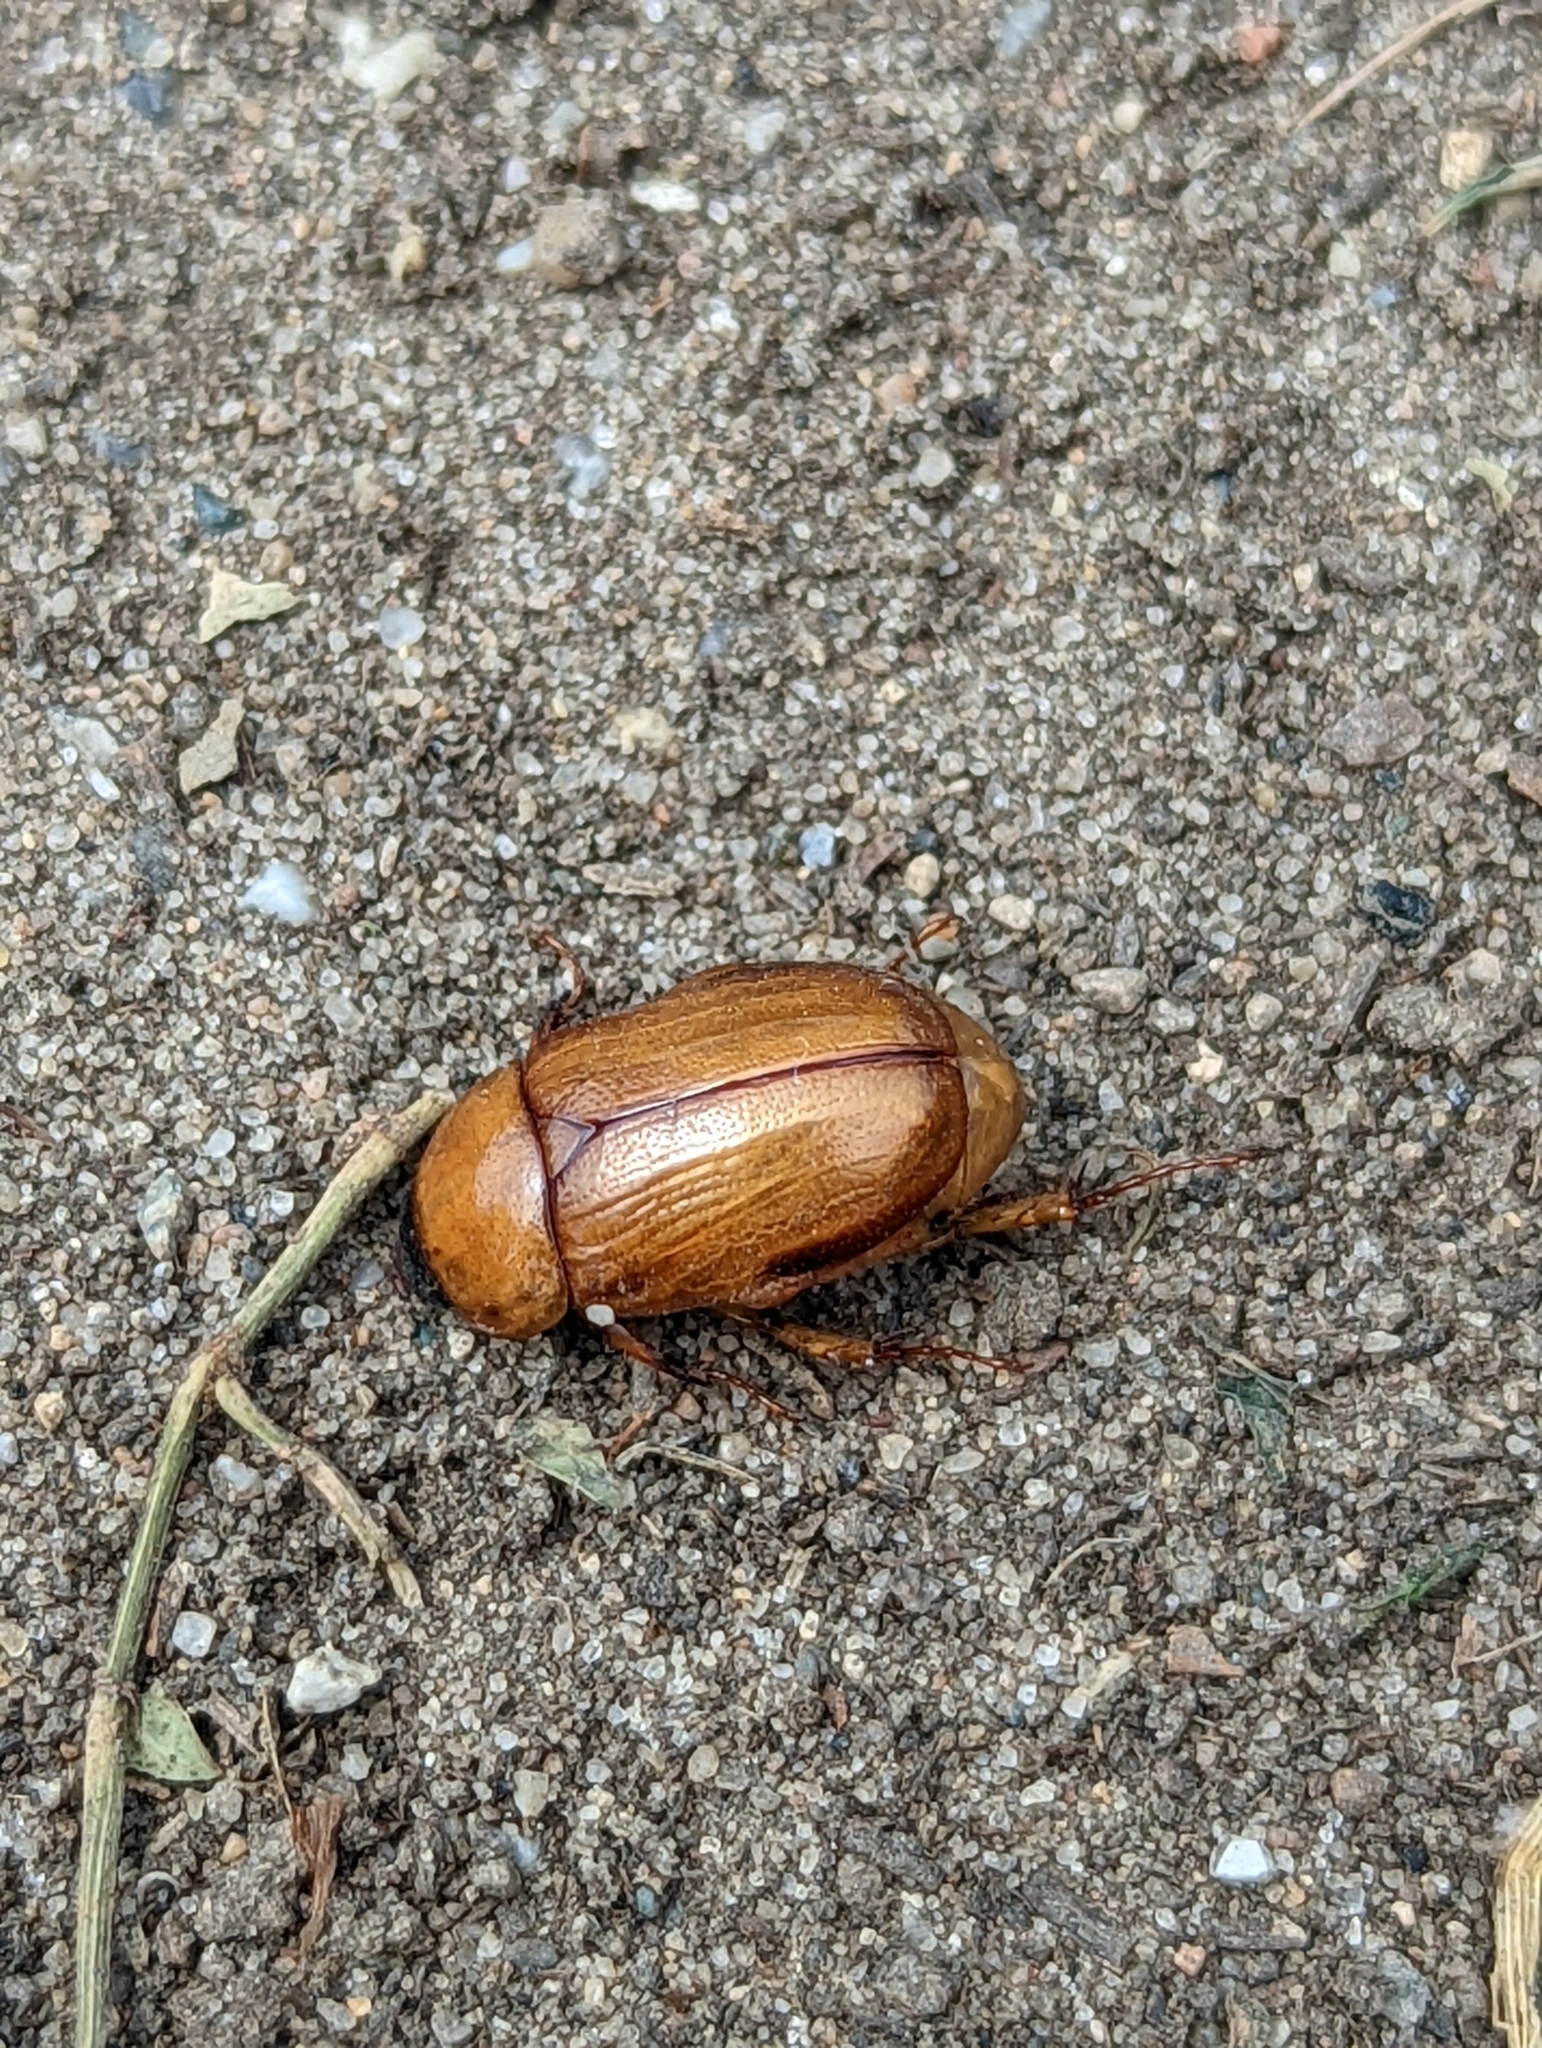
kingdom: Animalia
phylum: Arthropoda
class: Insecta
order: Coleoptera
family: Scarabaeidae
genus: Cyclocephala
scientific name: Cyclocephala lurida
